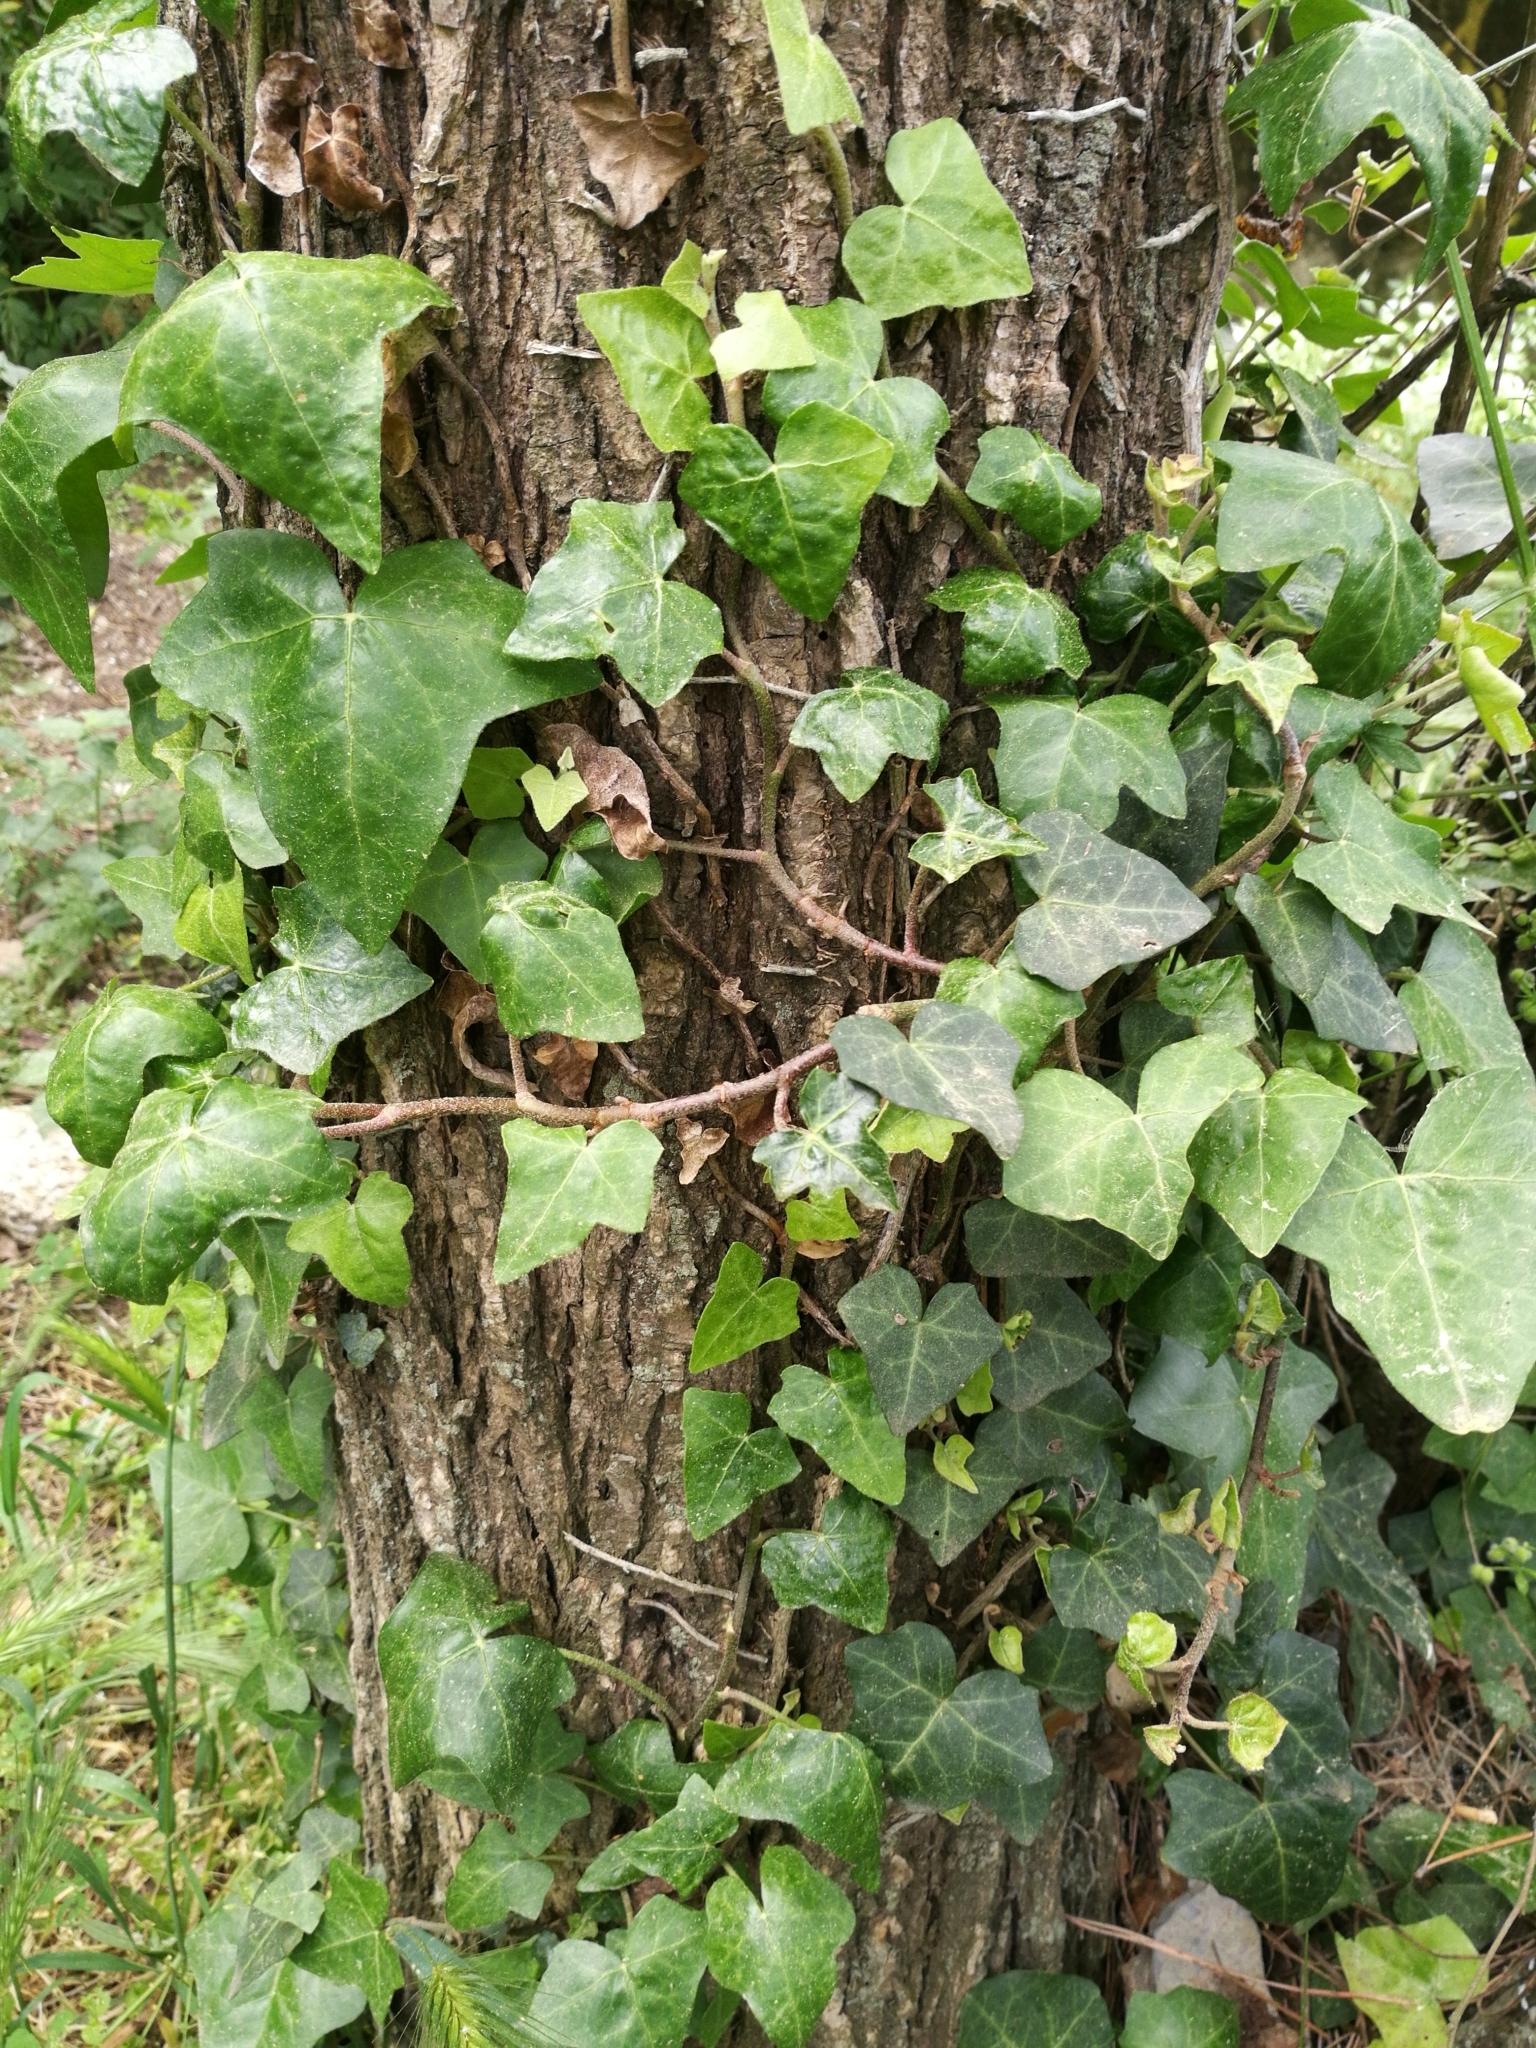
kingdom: Plantae
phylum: Tracheophyta
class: Magnoliopsida
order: Apiales
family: Araliaceae
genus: Hedera
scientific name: Hedera helix
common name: Ivy
